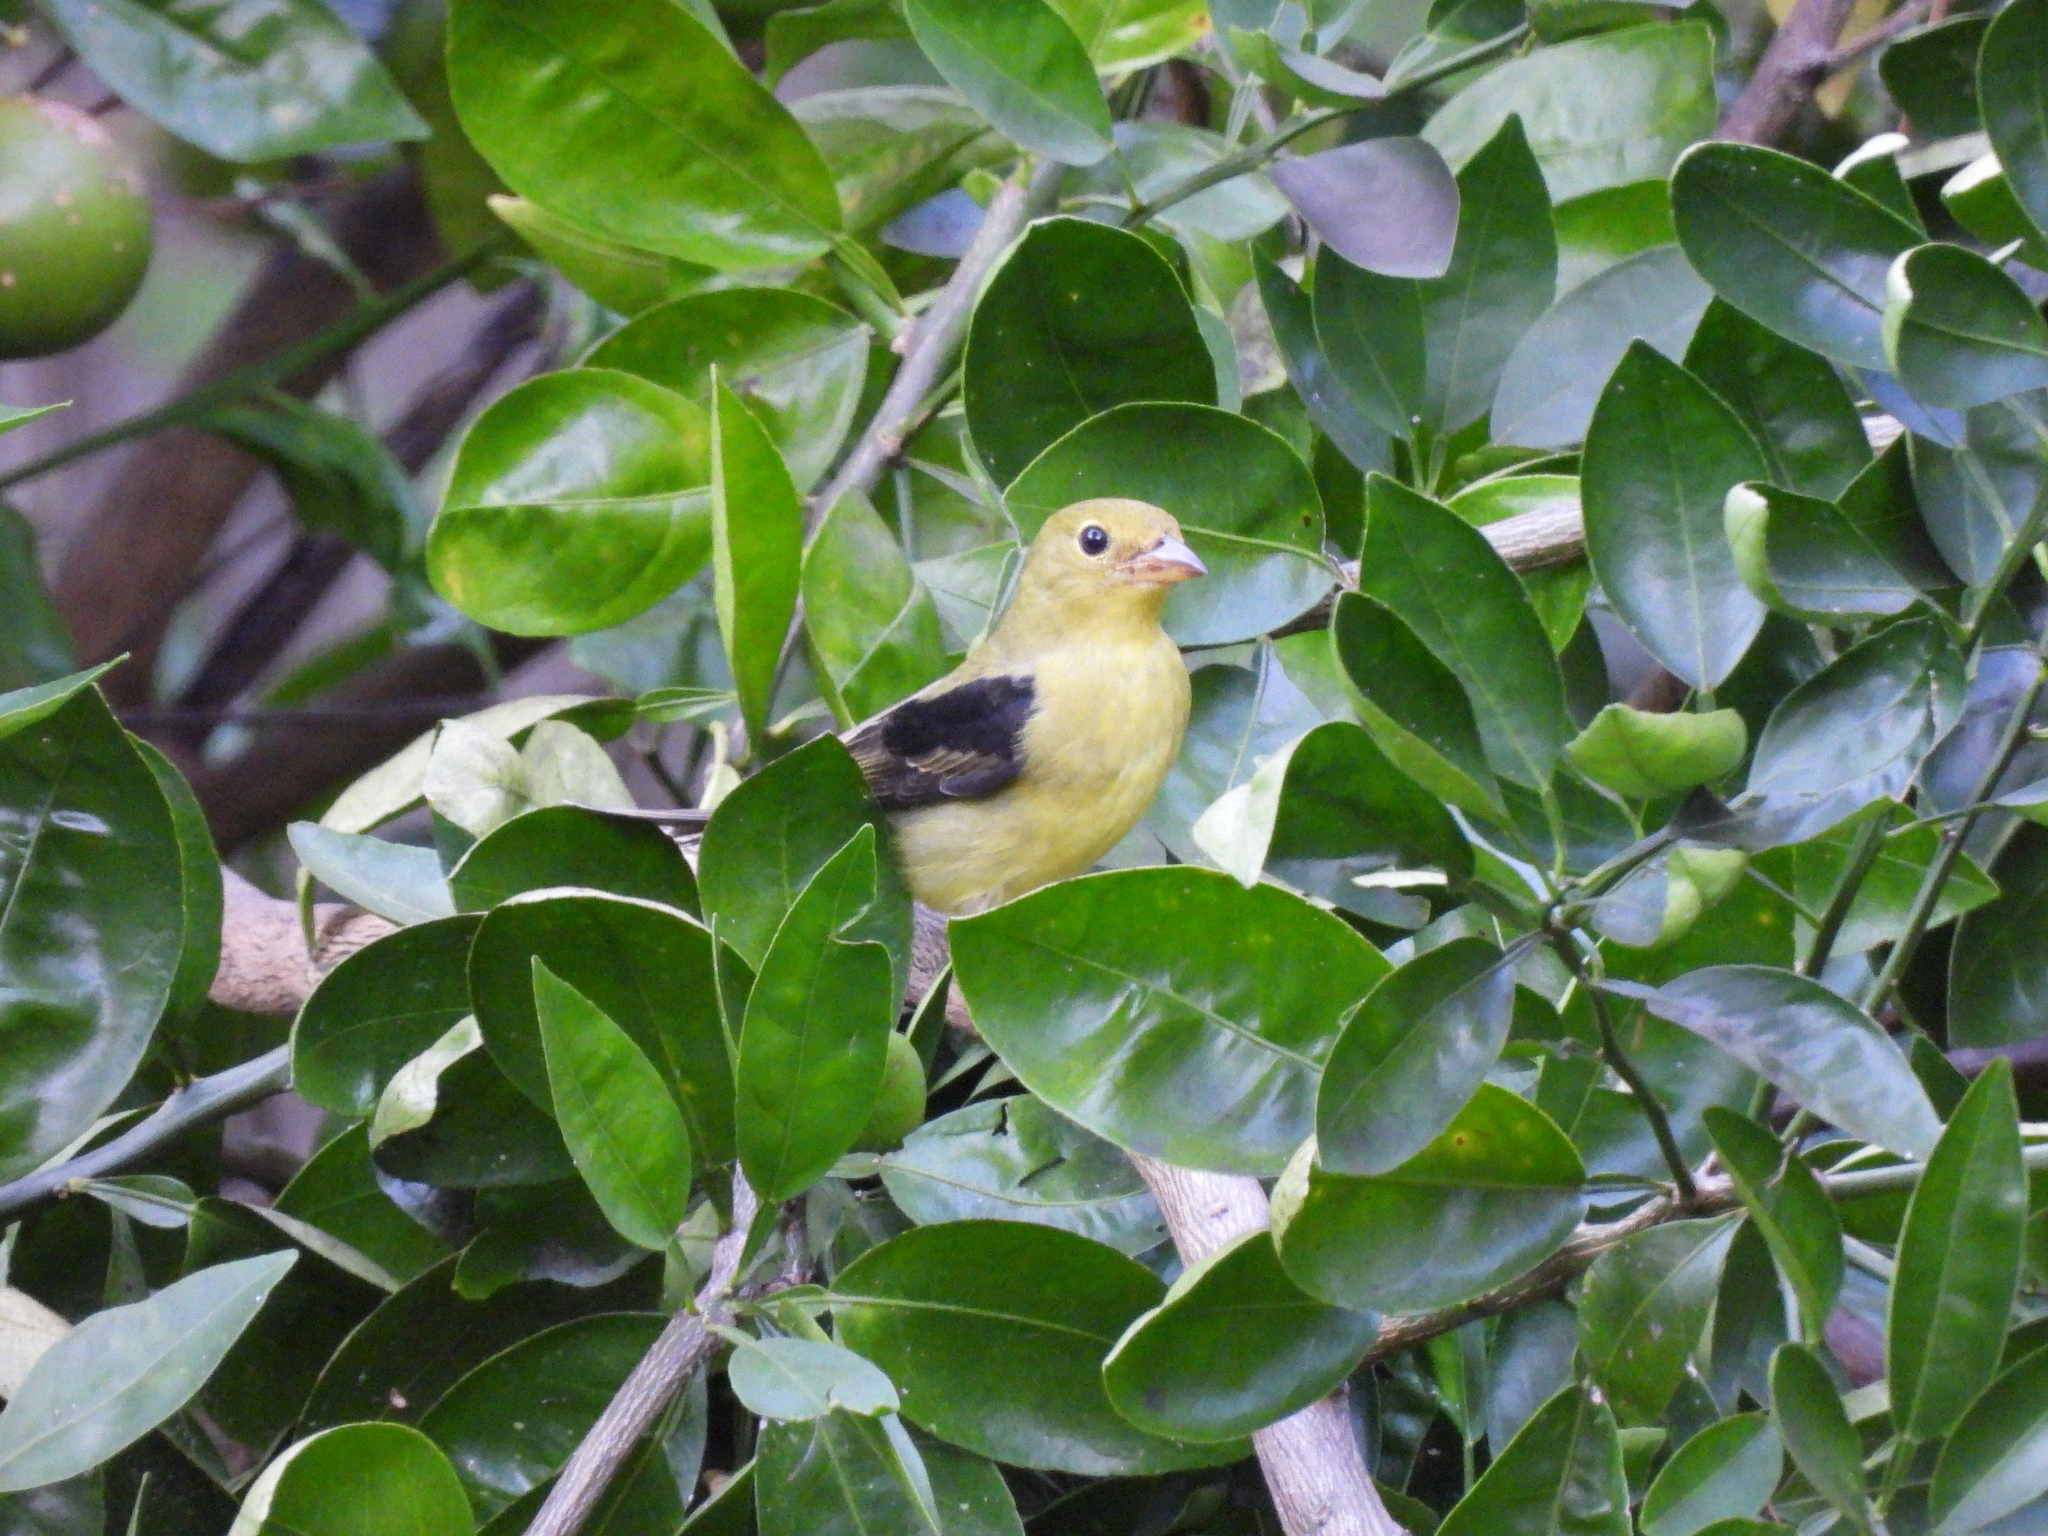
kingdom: Animalia
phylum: Chordata
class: Aves
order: Passeriformes
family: Cardinalidae
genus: Piranga
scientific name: Piranga olivacea
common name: Scarlet tanager
